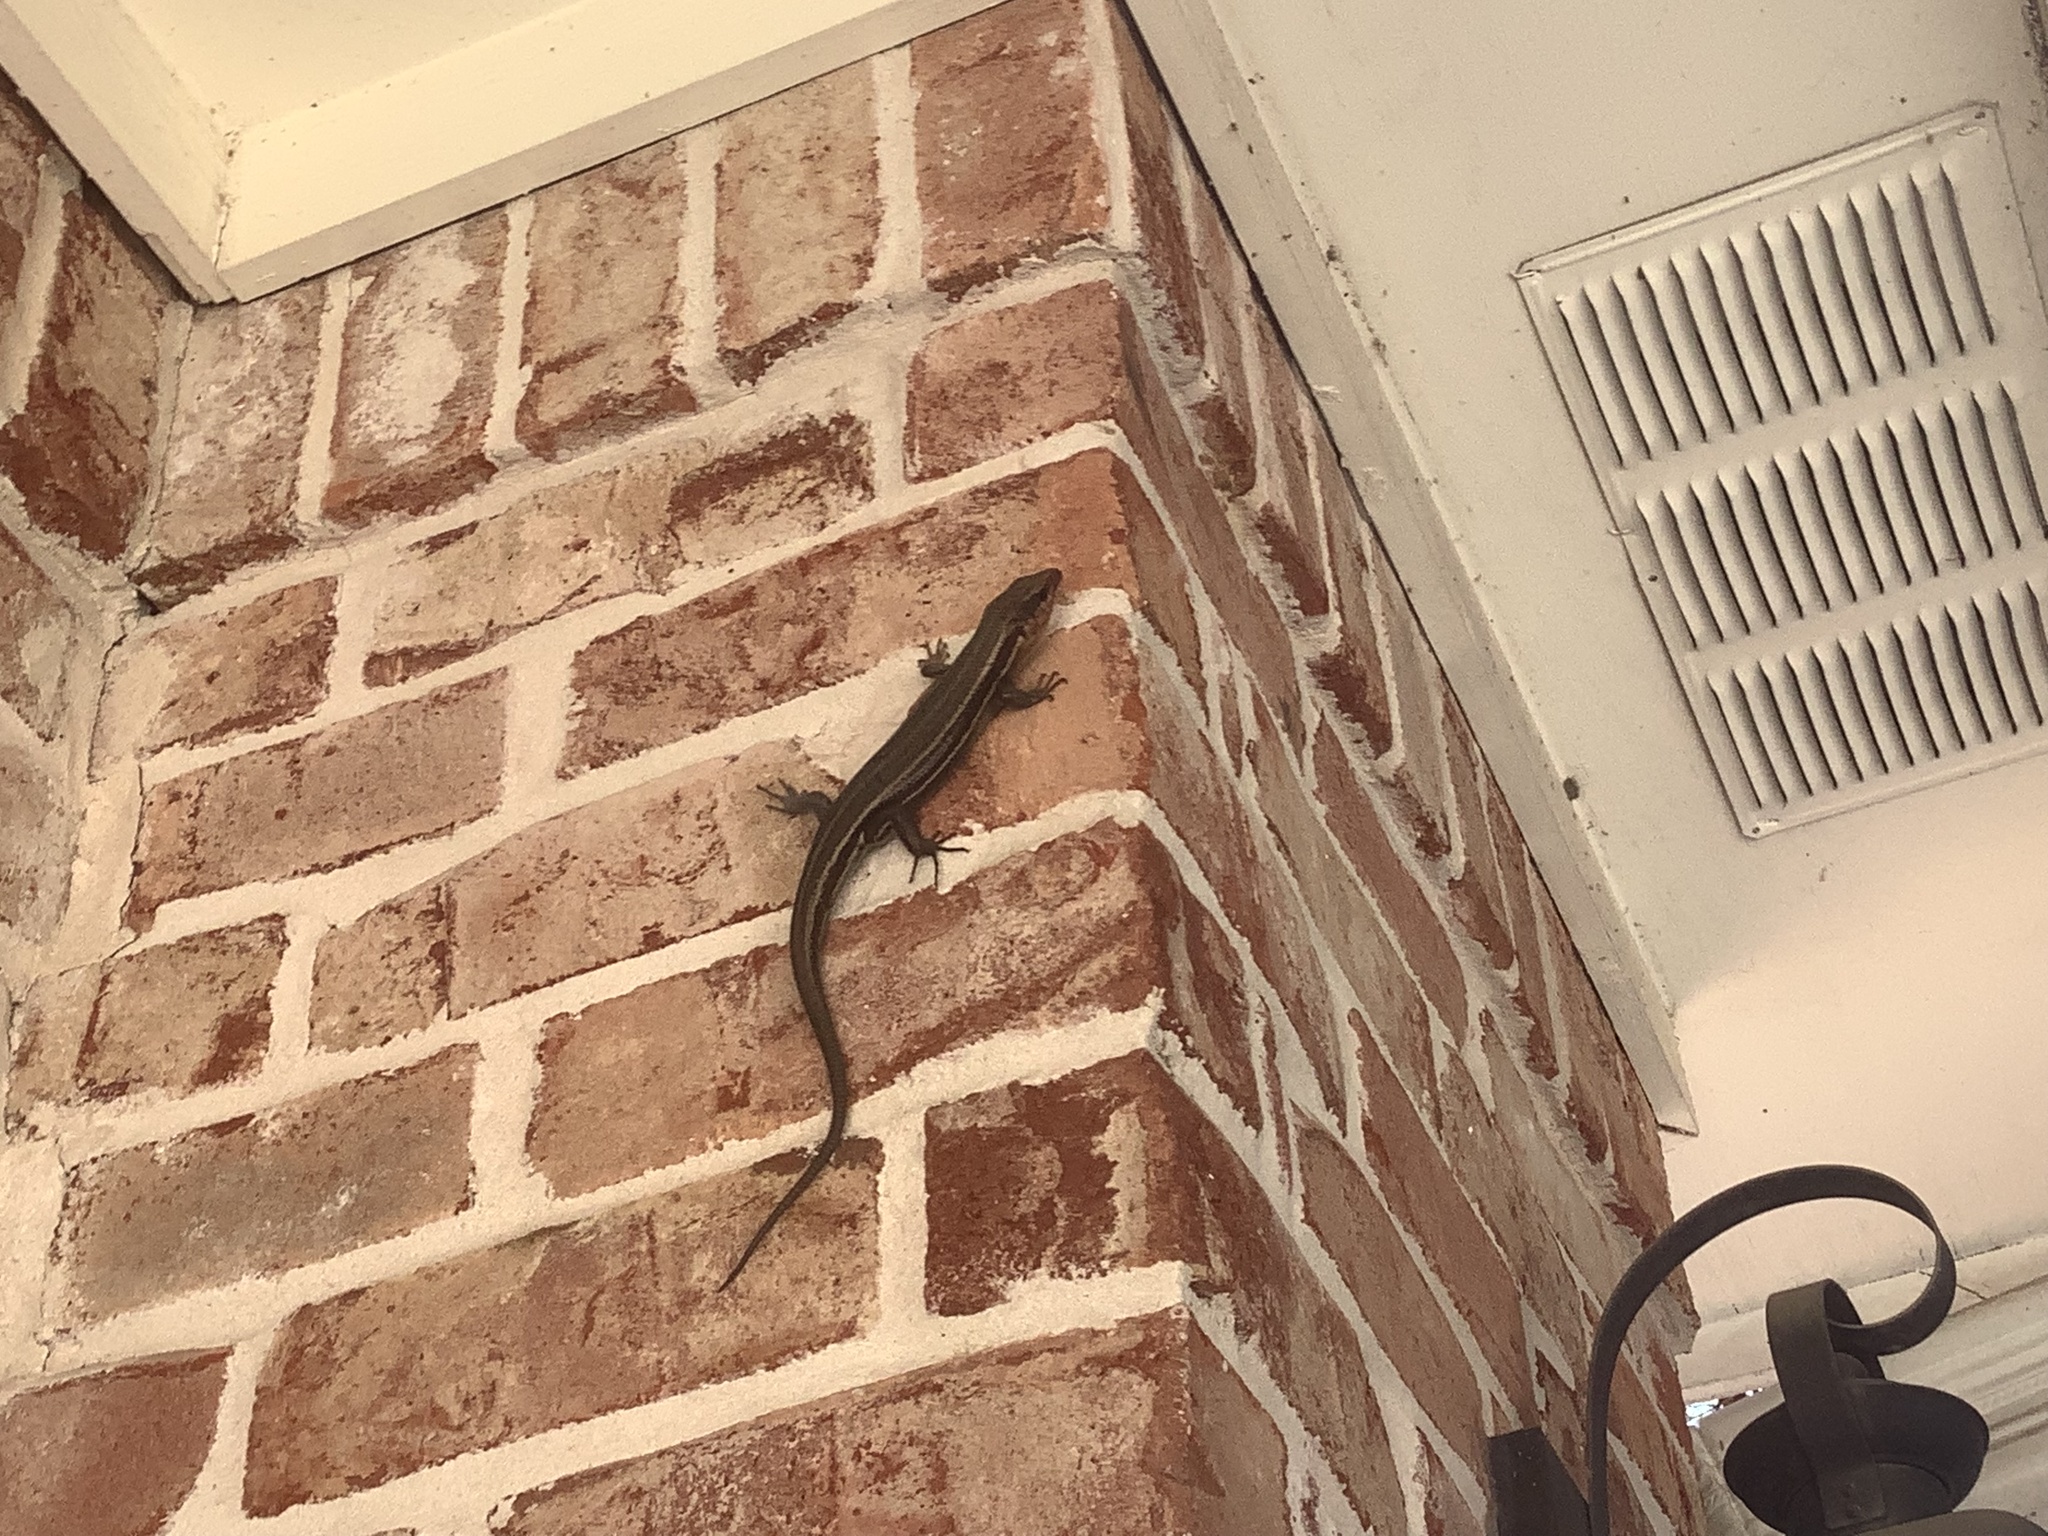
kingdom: Animalia
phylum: Chordata
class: Squamata
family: Scincidae
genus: Plestiodon
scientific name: Plestiodon fasciatus
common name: Five-lined skink
